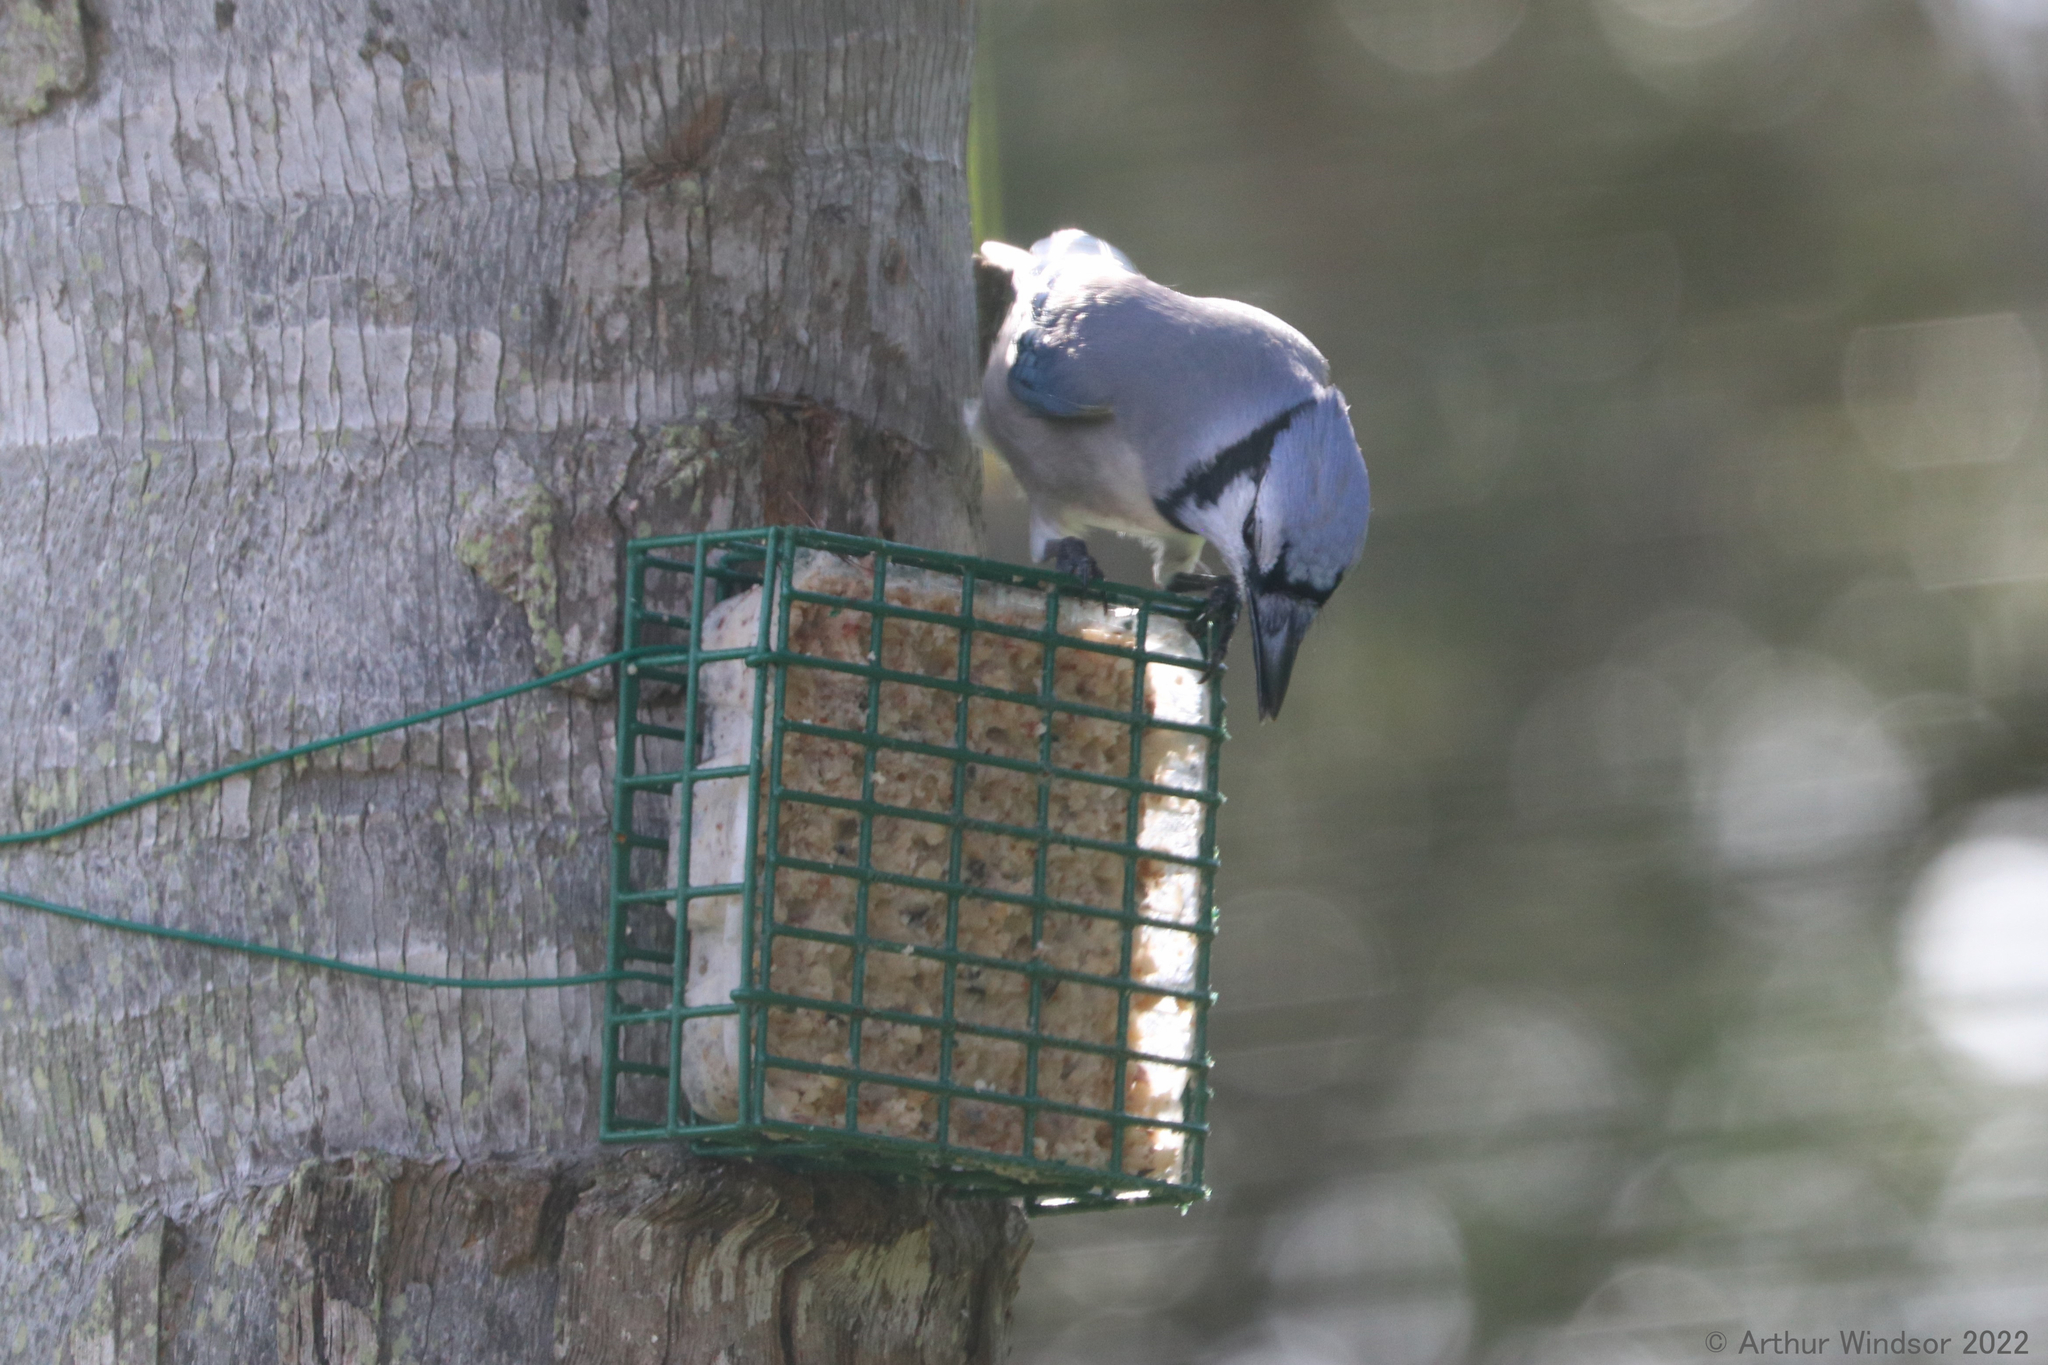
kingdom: Animalia
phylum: Chordata
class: Aves
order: Passeriformes
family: Corvidae
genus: Cyanocitta
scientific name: Cyanocitta cristata
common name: Blue jay
